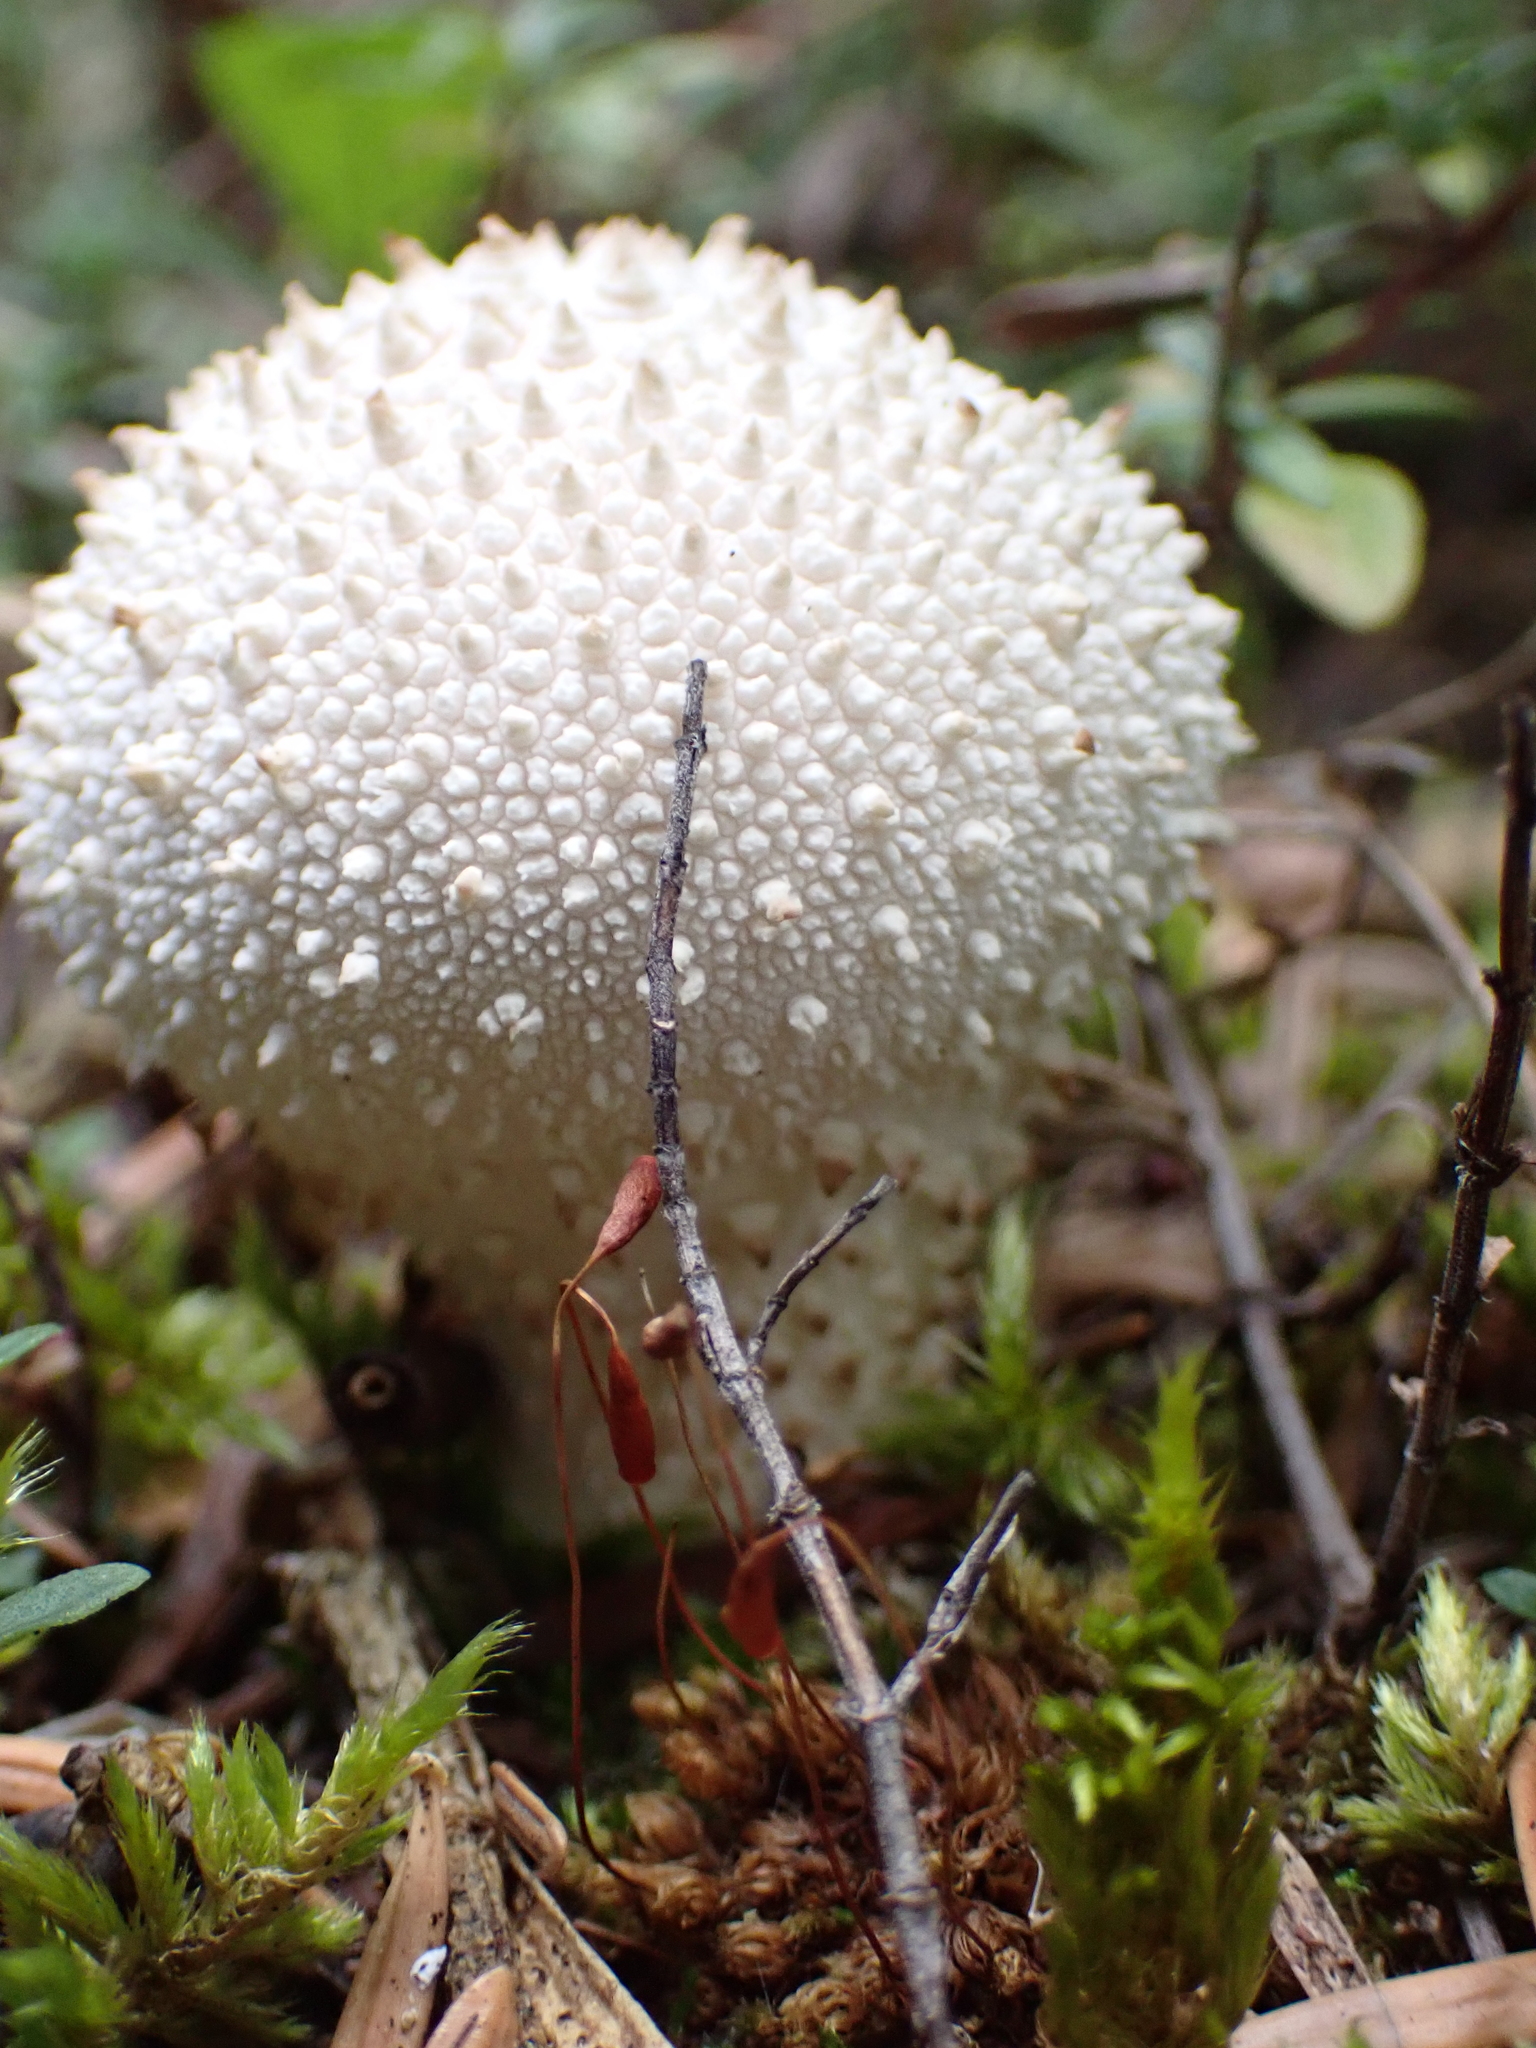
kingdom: Fungi
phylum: Basidiomycota
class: Agaricomycetes
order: Agaricales
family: Lycoperdaceae
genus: Lycoperdon
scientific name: Lycoperdon perlatum
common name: Common puffball
